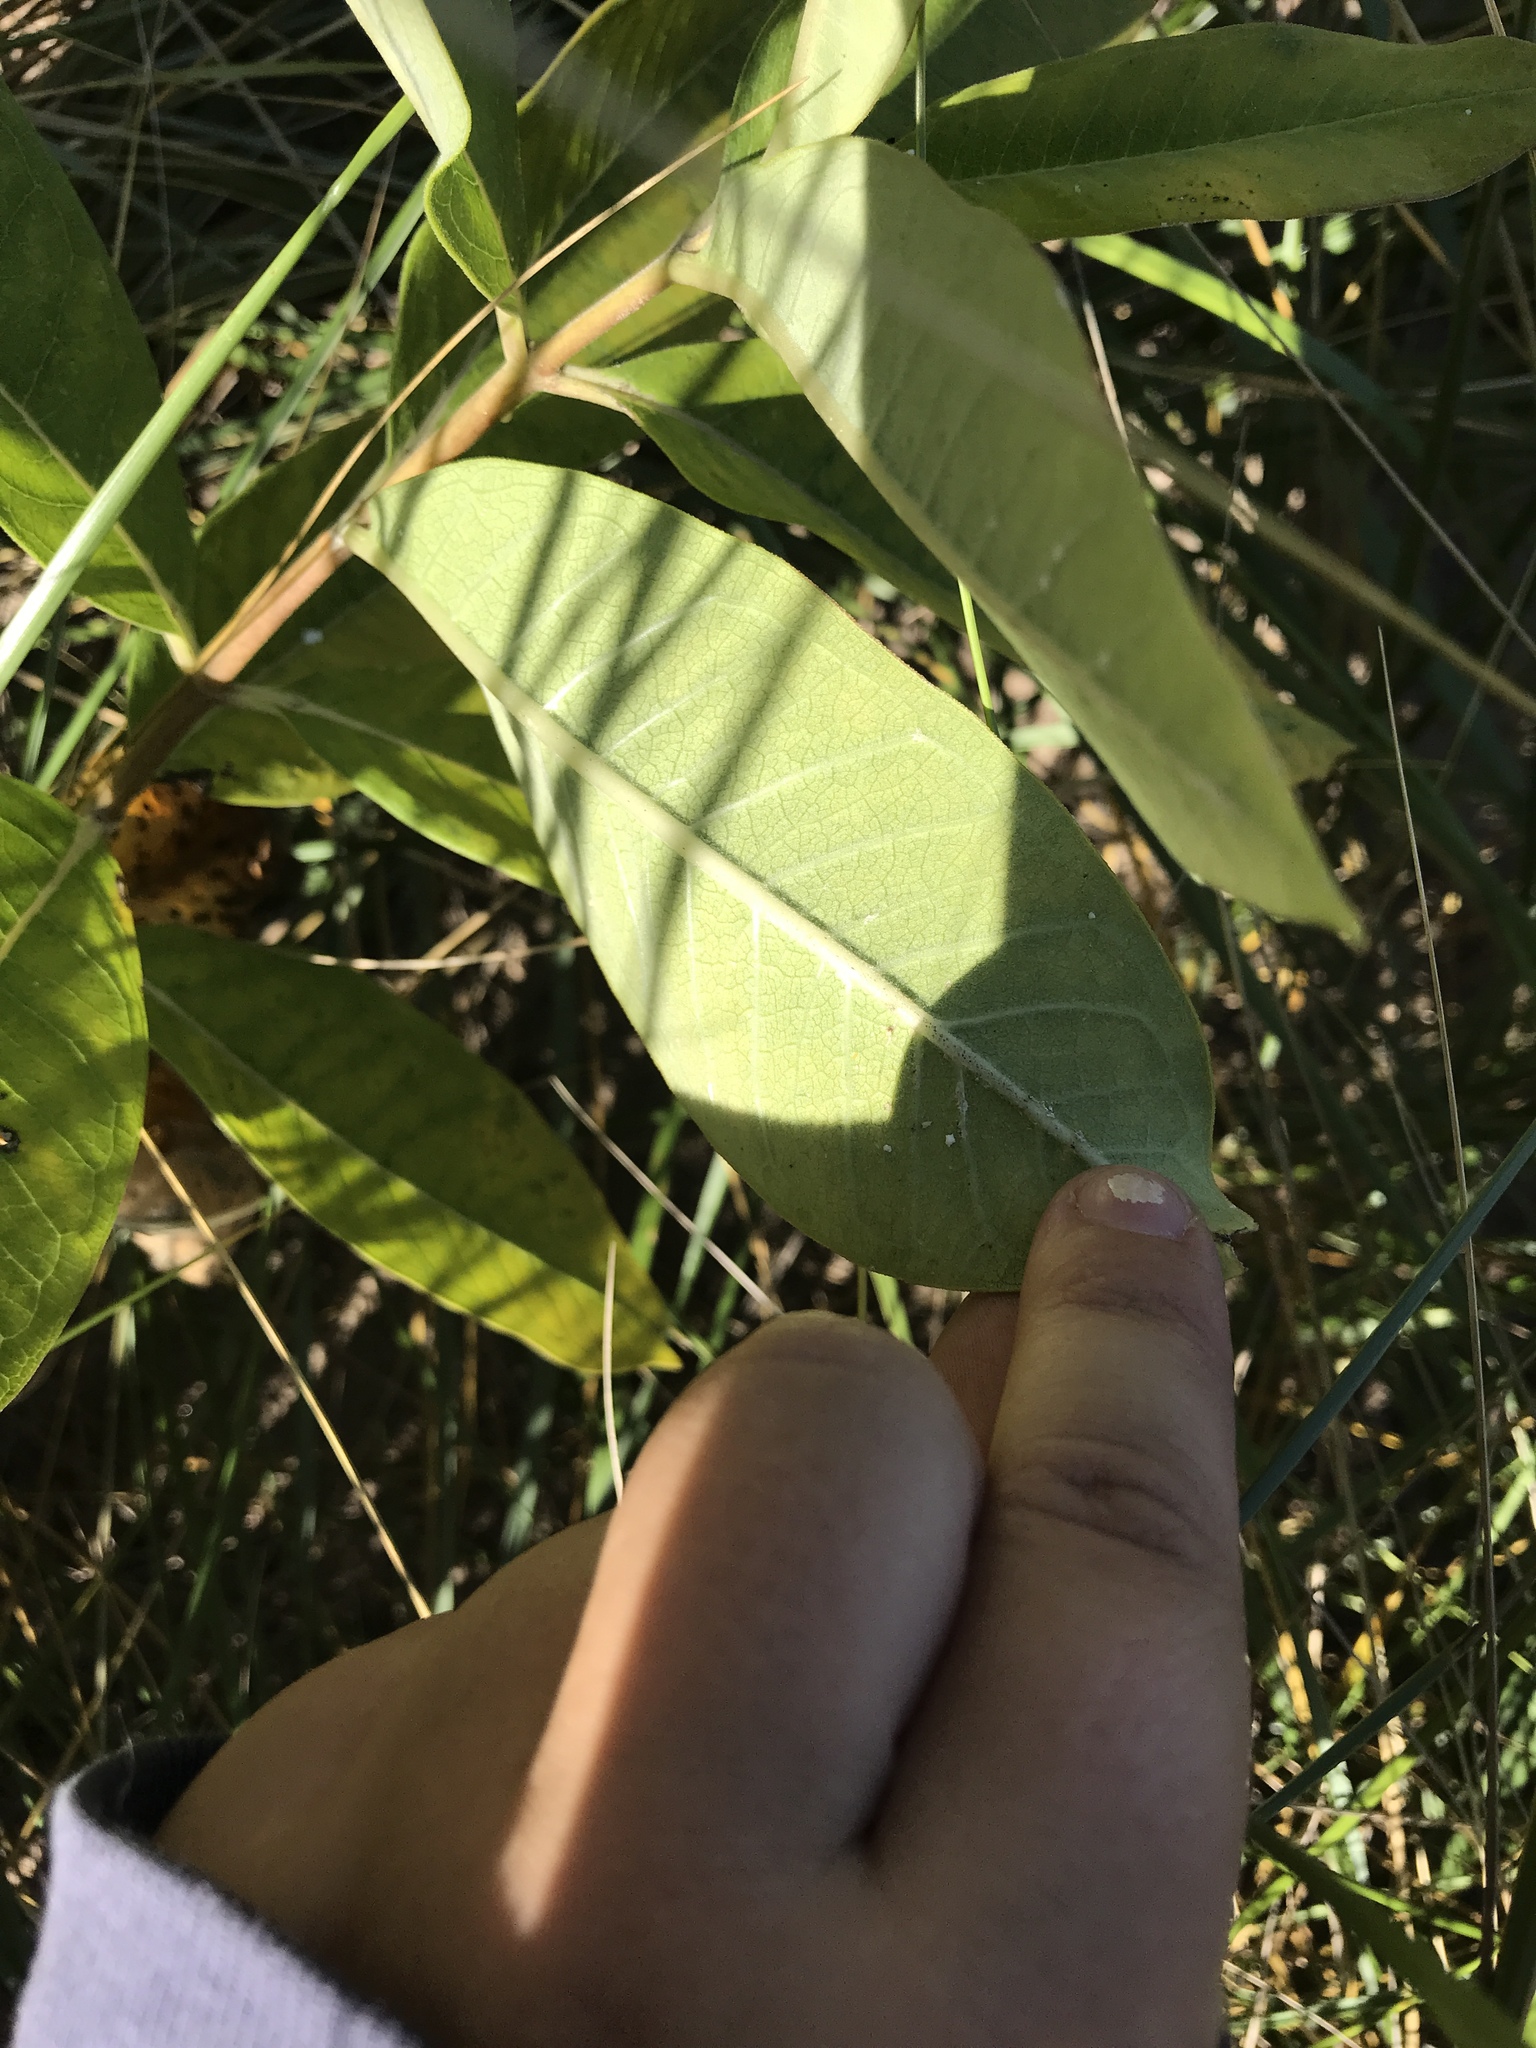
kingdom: Plantae
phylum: Tracheophyta
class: Magnoliopsida
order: Gentianales
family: Apocynaceae
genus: Asclepias
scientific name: Asclepias syriaca
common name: Common milkweed
